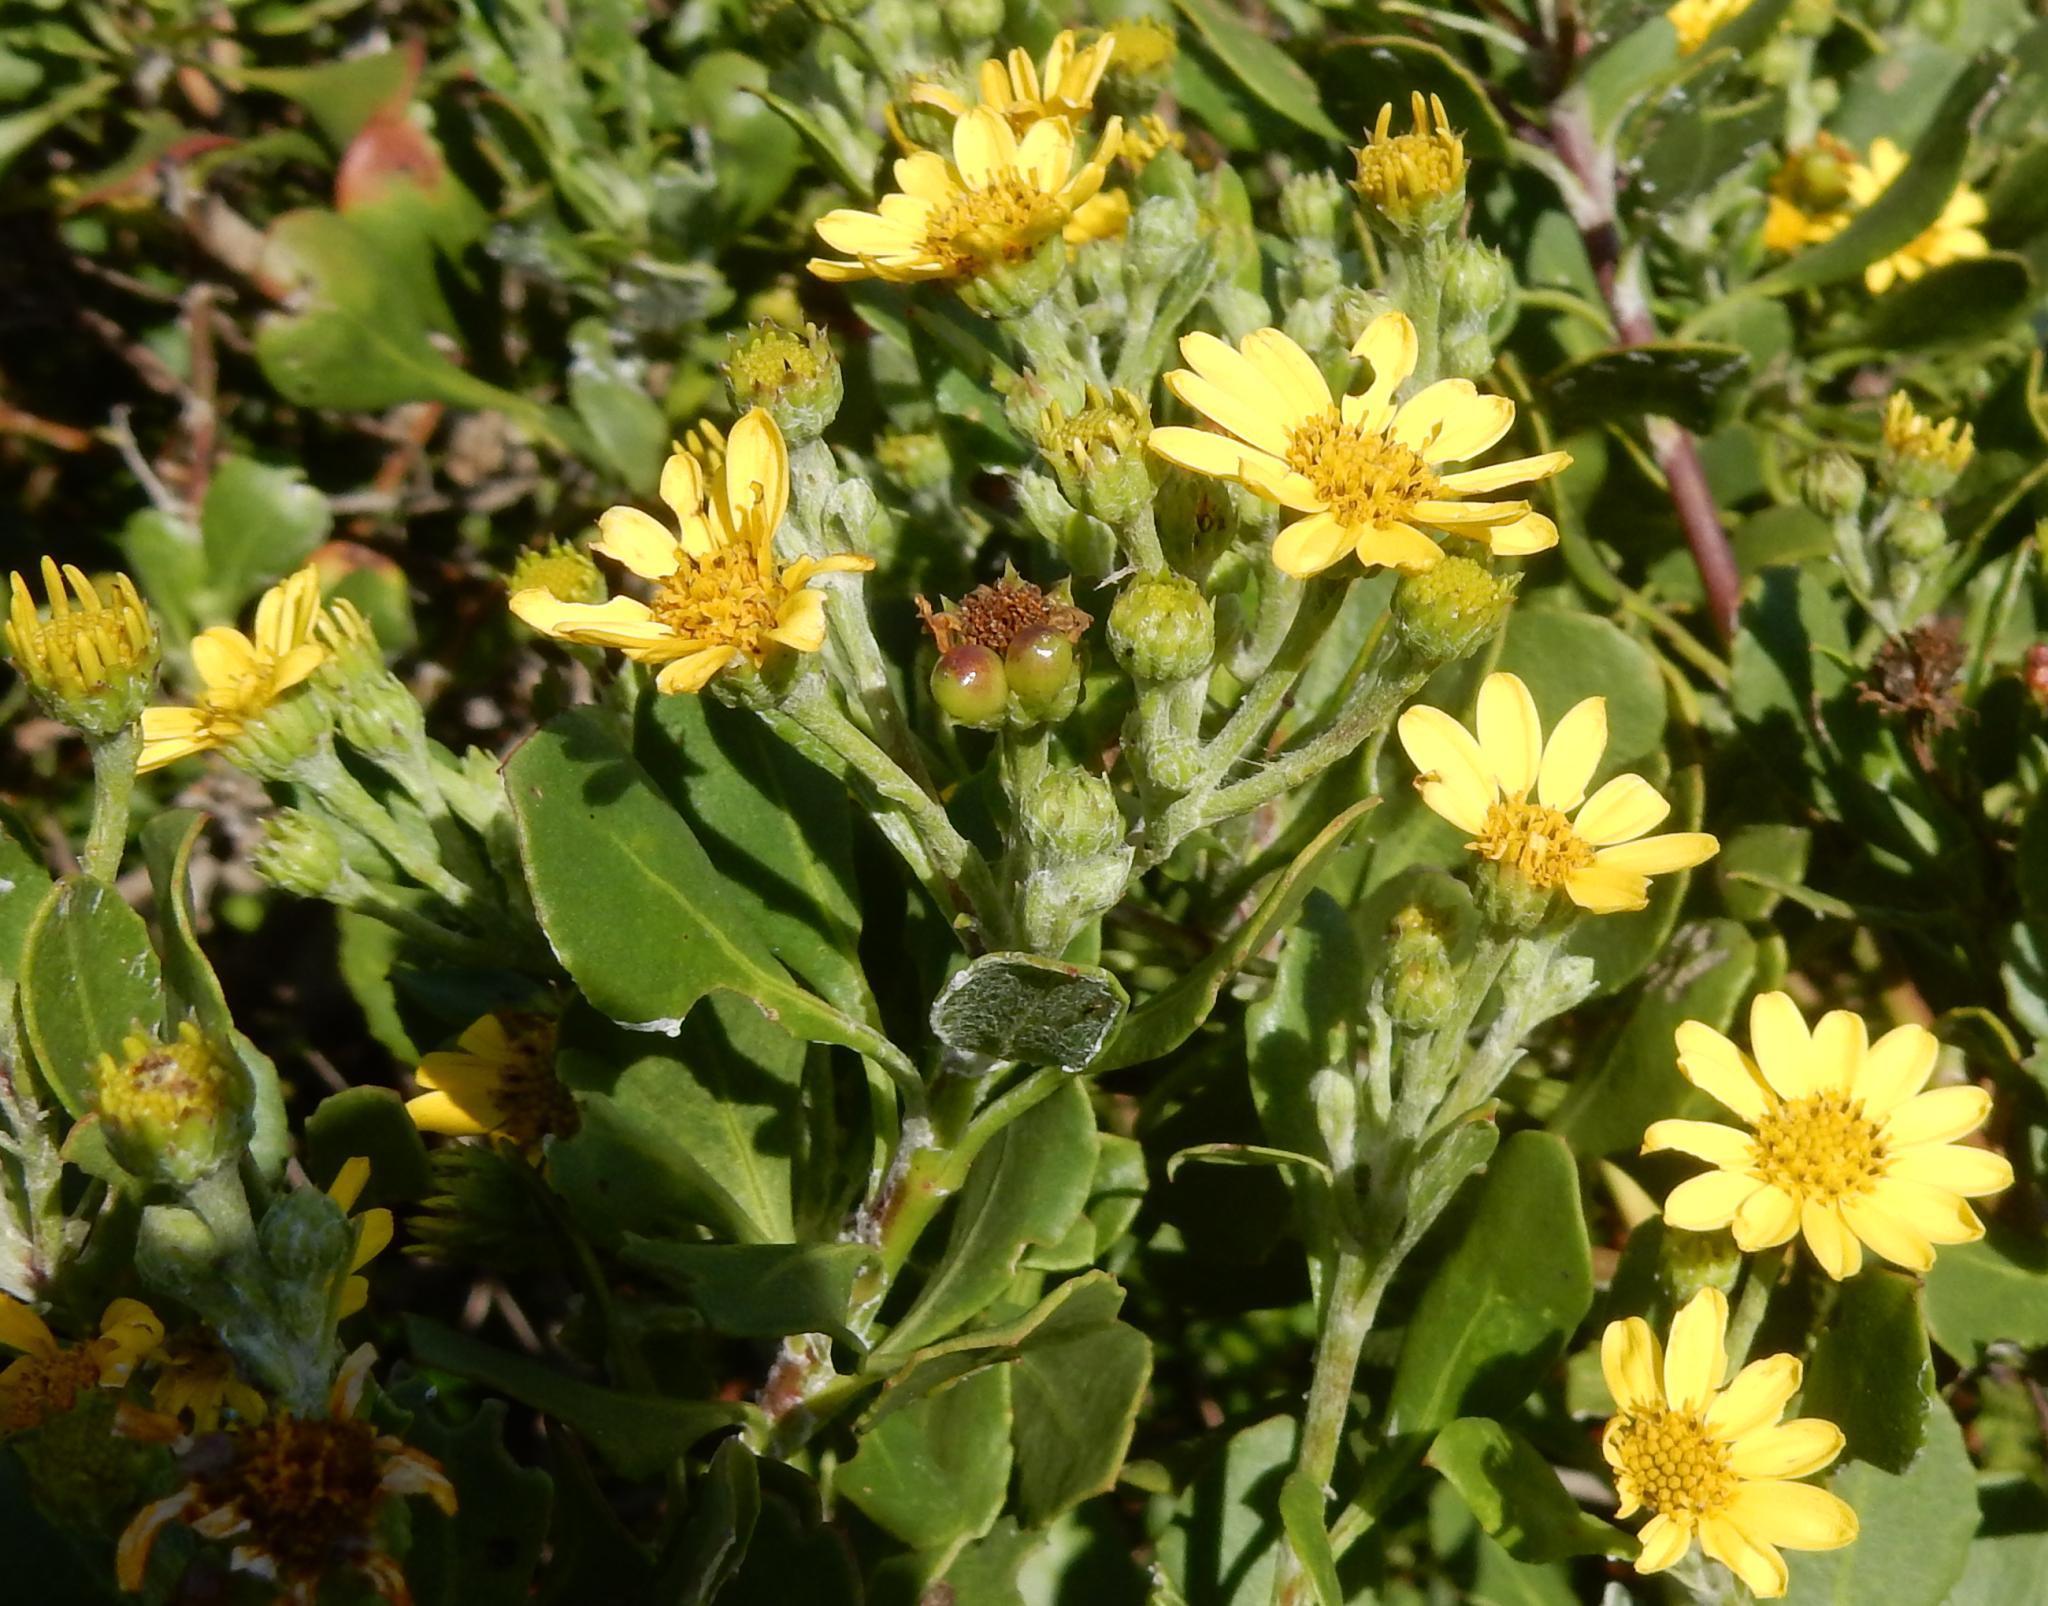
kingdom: Plantae
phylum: Tracheophyta
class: Magnoliopsida
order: Asterales
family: Asteraceae
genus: Osteospermum
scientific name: Osteospermum moniliferum
